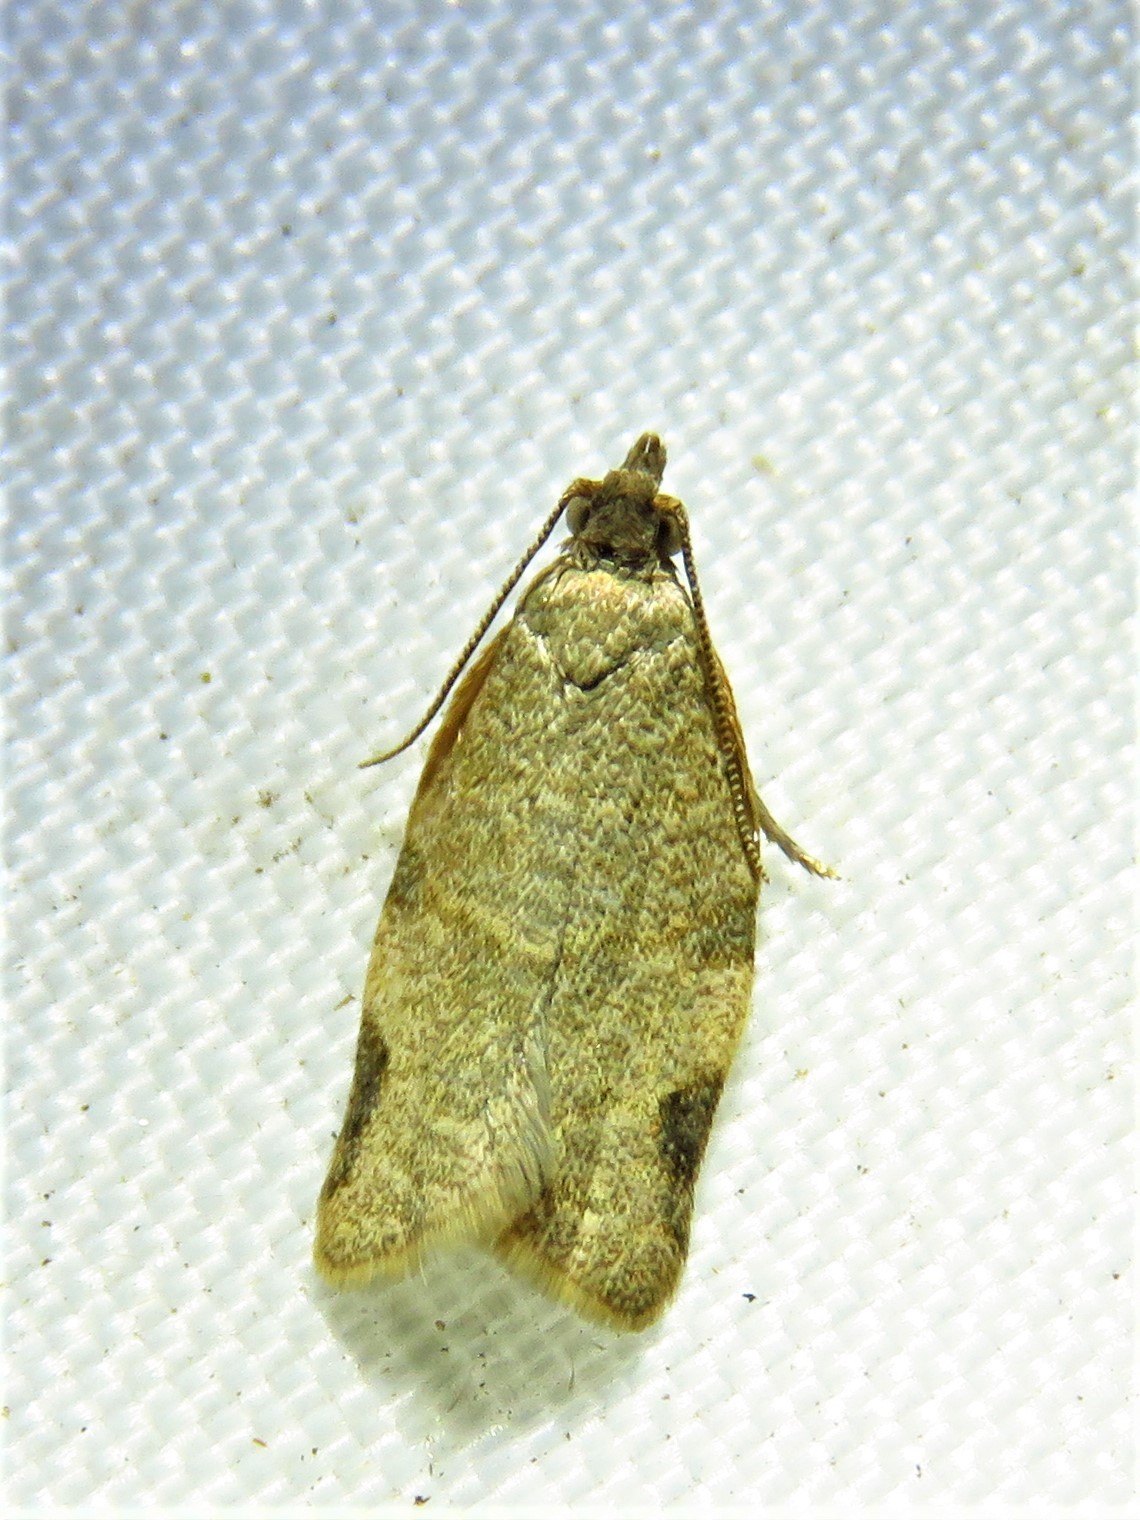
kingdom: Animalia
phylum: Arthropoda
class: Insecta
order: Lepidoptera
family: Tortricidae
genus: Clepsis
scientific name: Clepsis virescana
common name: Greenish apple moth
